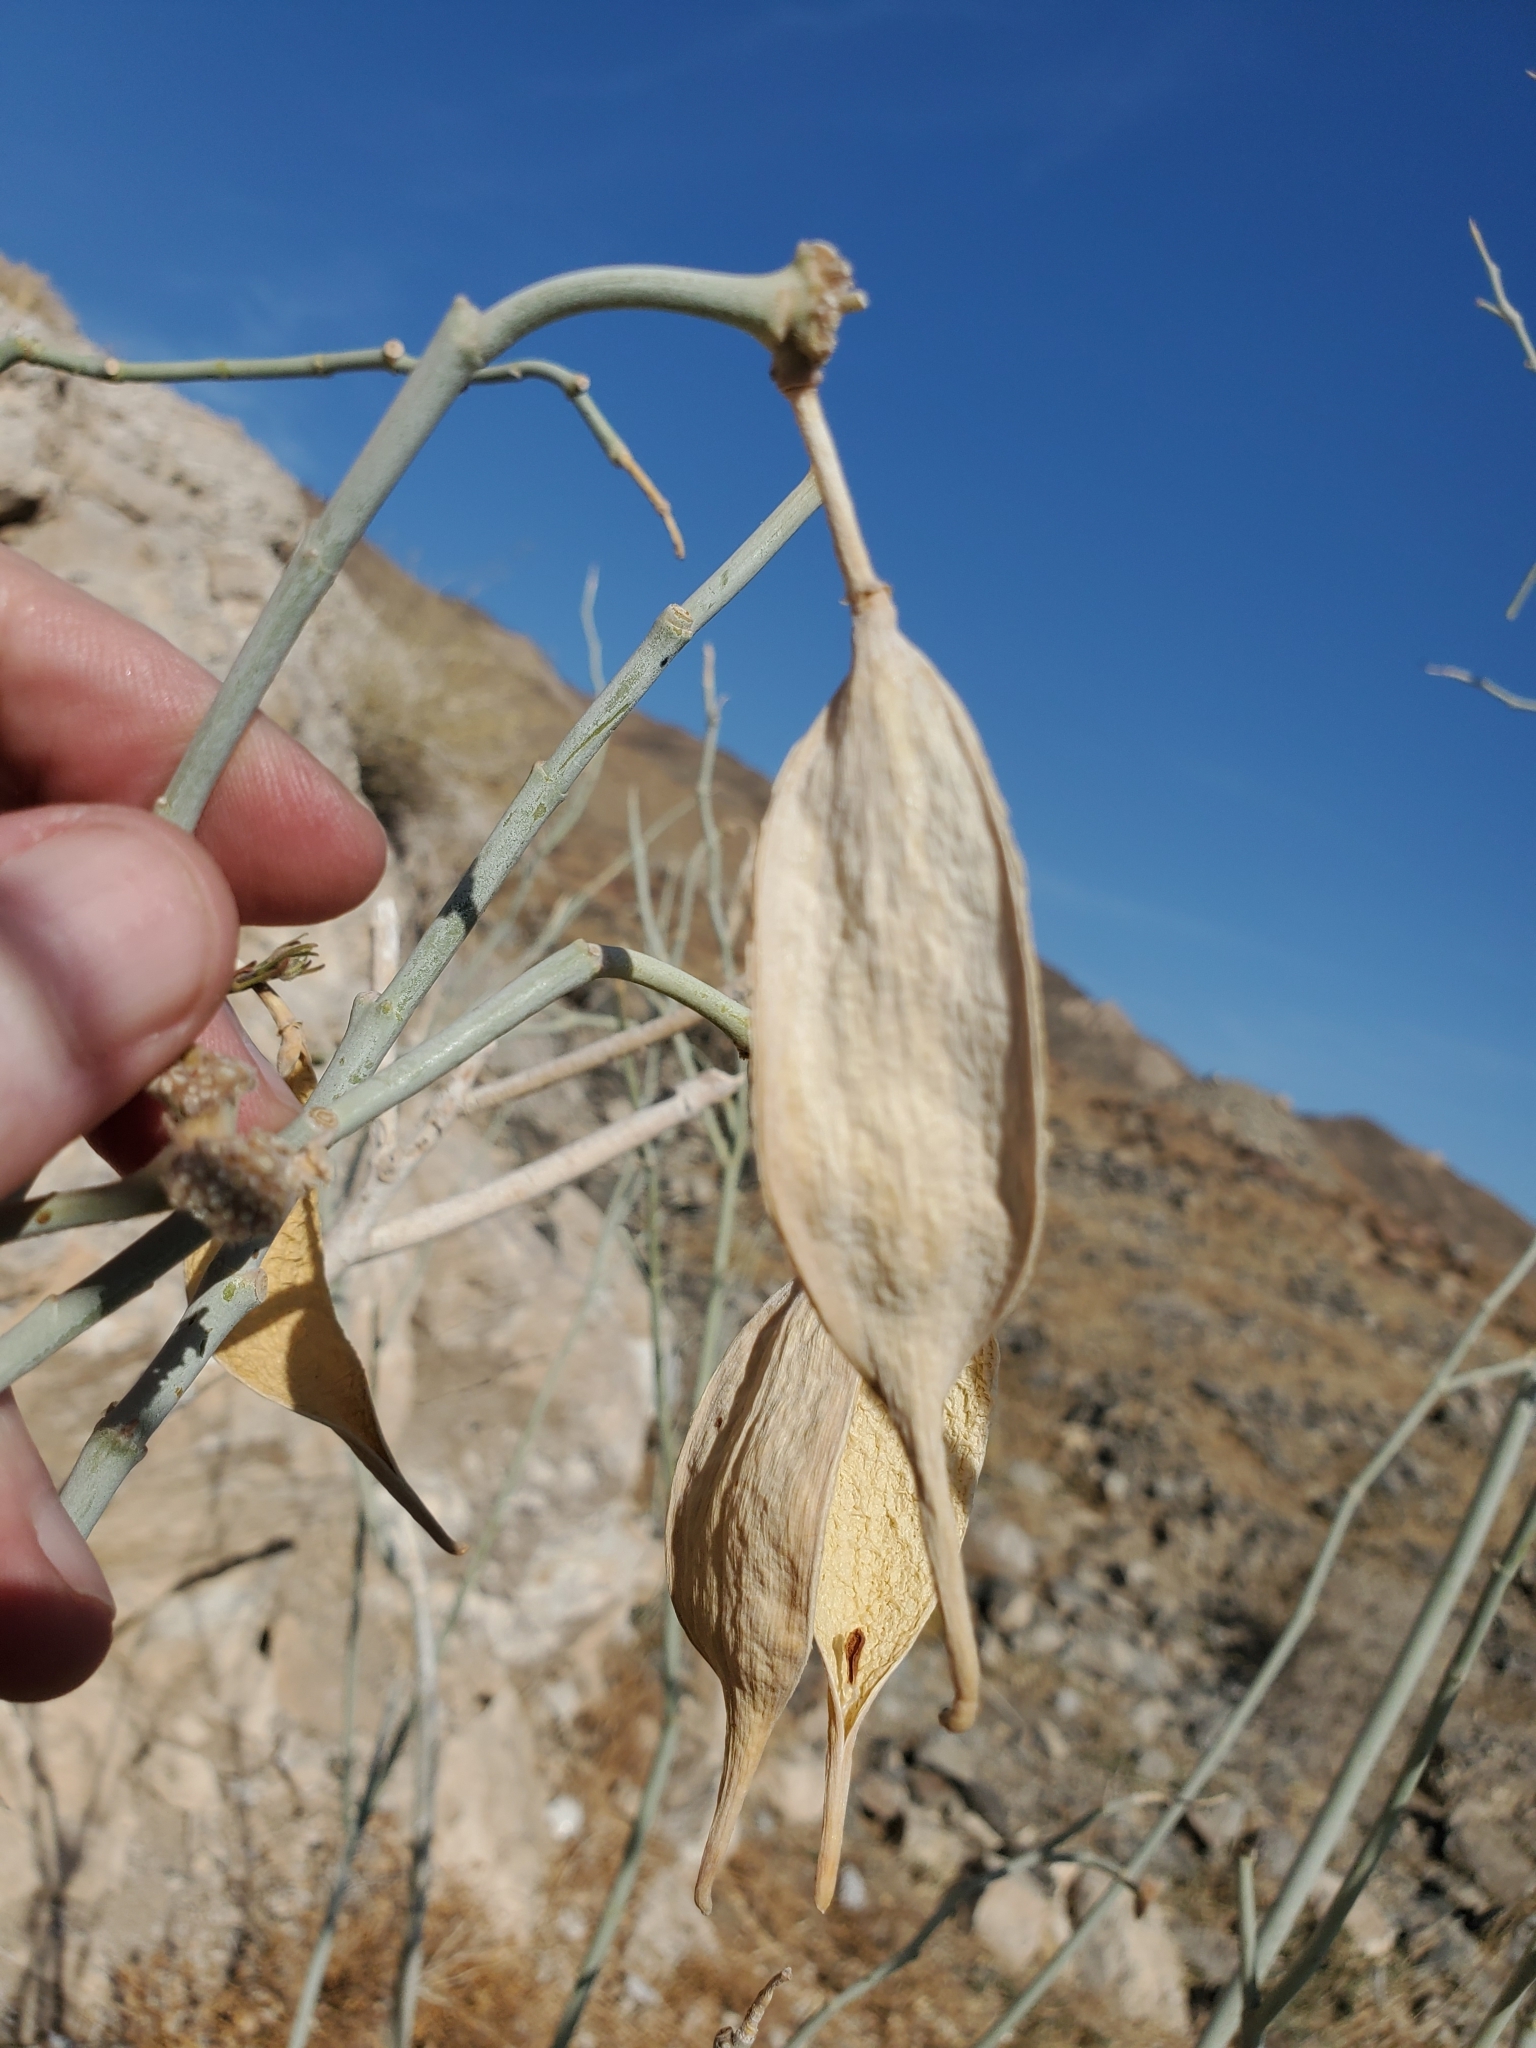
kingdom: Plantae
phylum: Tracheophyta
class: Magnoliopsida
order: Gentianales
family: Apocynaceae
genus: Asclepias
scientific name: Asclepias albicans
